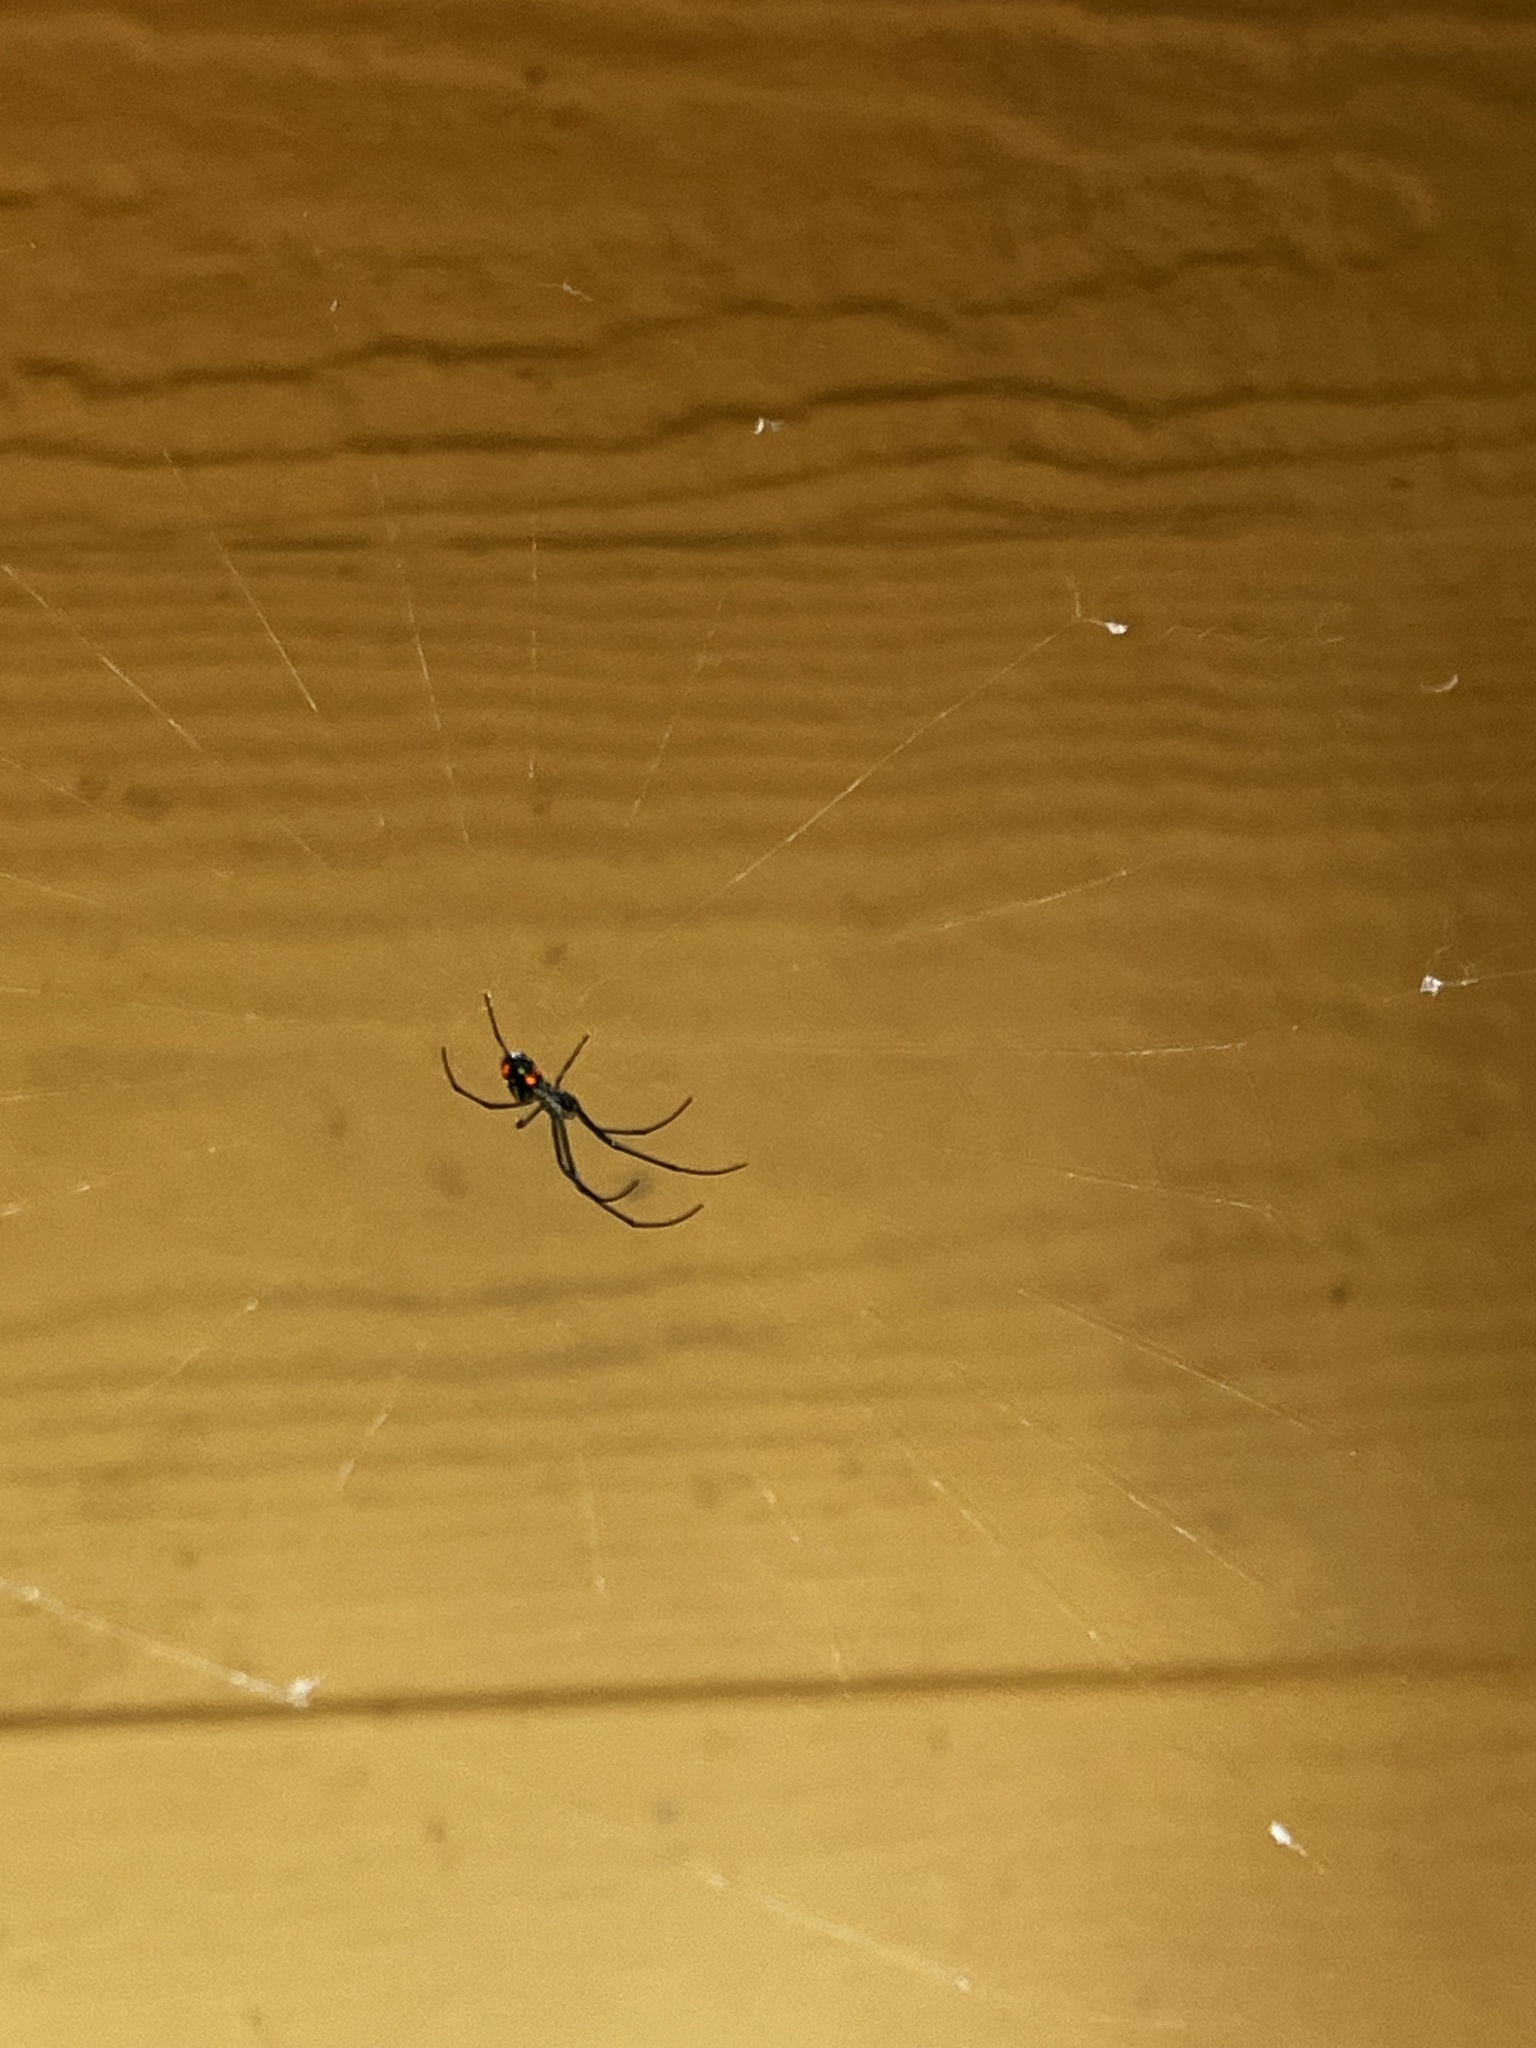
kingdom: Animalia
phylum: Arthropoda
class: Arachnida
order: Araneae
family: Tetragnathidae
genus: Leucauge
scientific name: Leucauge argyrobapta
